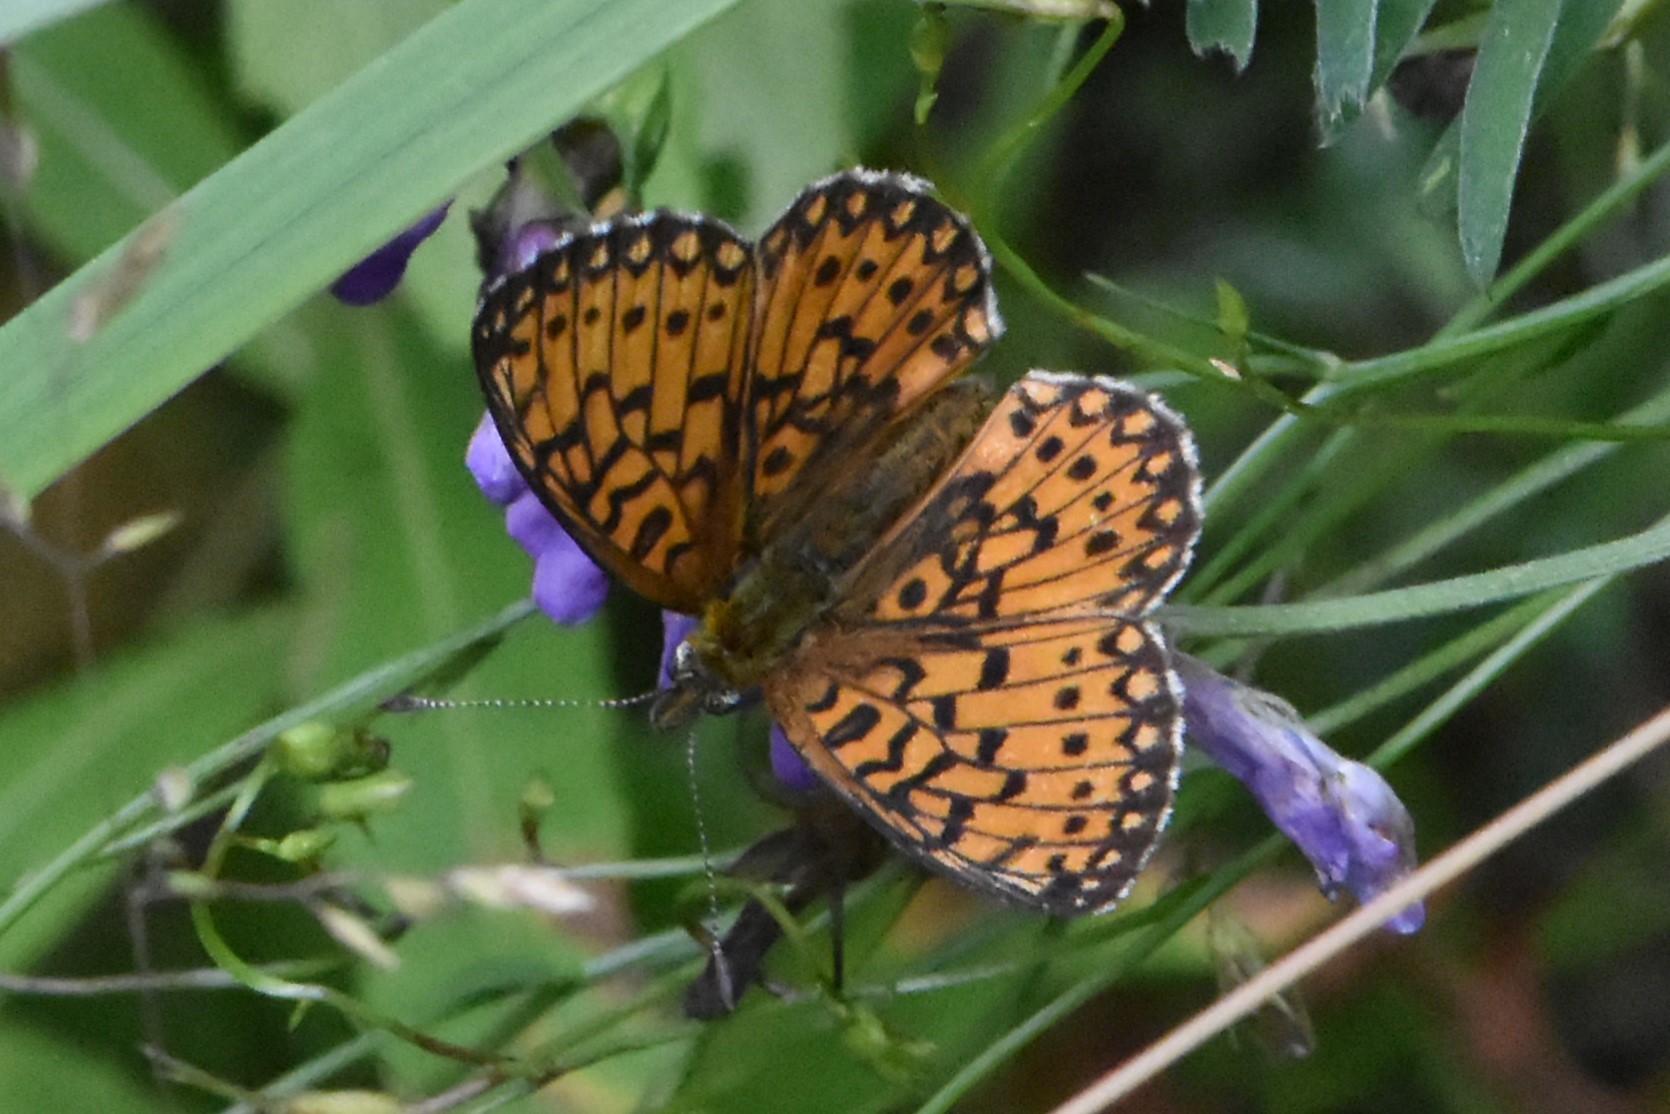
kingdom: Animalia
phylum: Arthropoda
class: Insecta
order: Lepidoptera
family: Nymphalidae
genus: Boloria
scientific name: Boloria selene
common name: Small pearl-bordered fritillary
